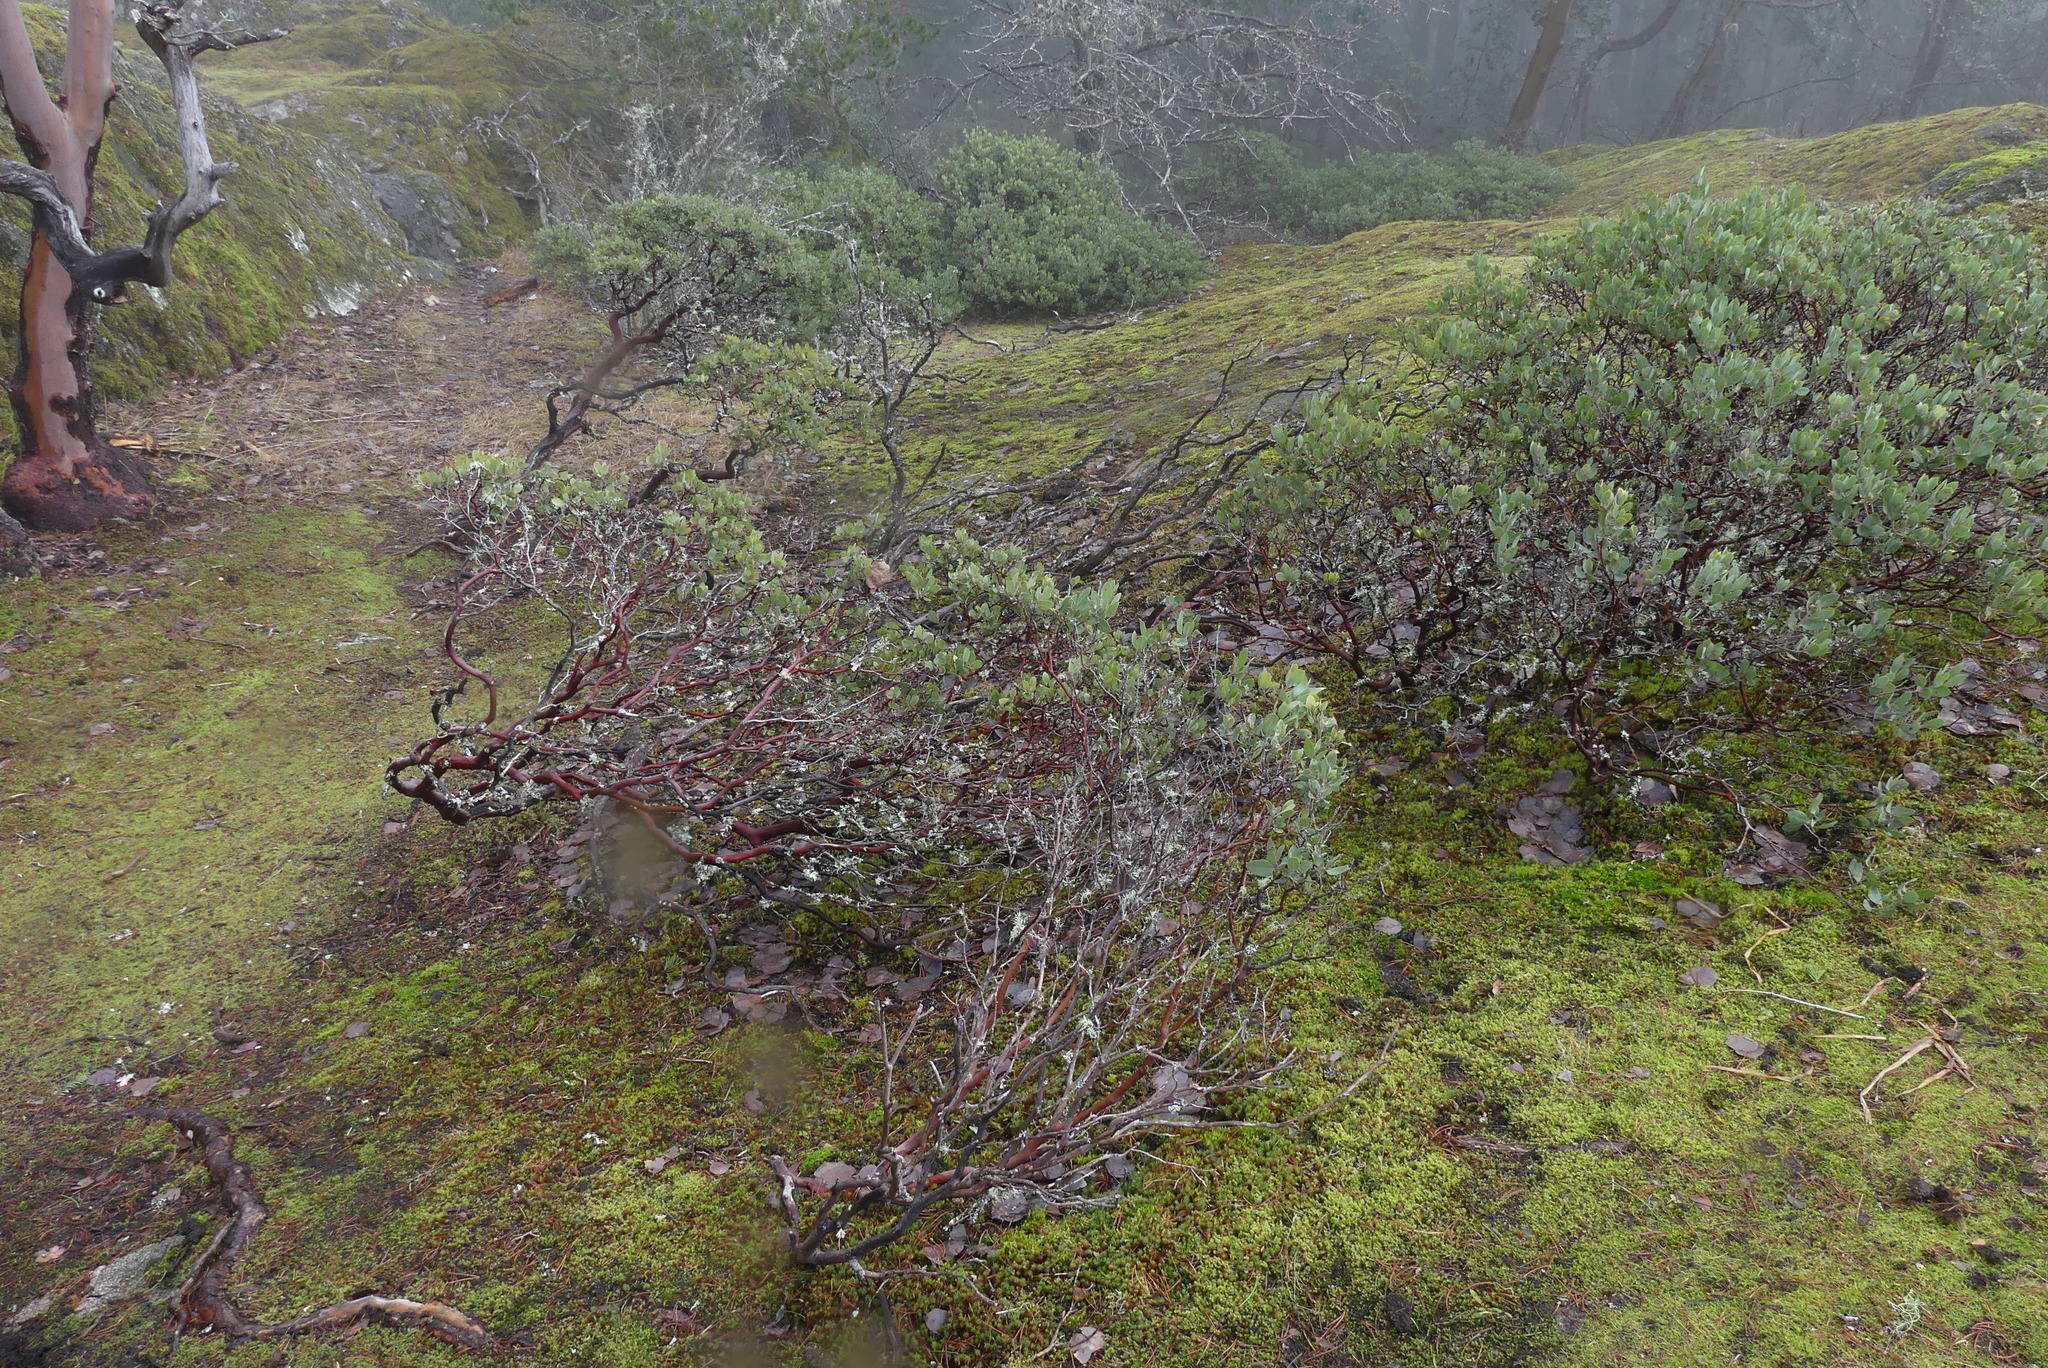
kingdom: Plantae
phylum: Tracheophyta
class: Magnoliopsida
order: Ericales
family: Ericaceae
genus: Arctostaphylos
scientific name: Arctostaphylos columbiana
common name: Bristly bearberry
